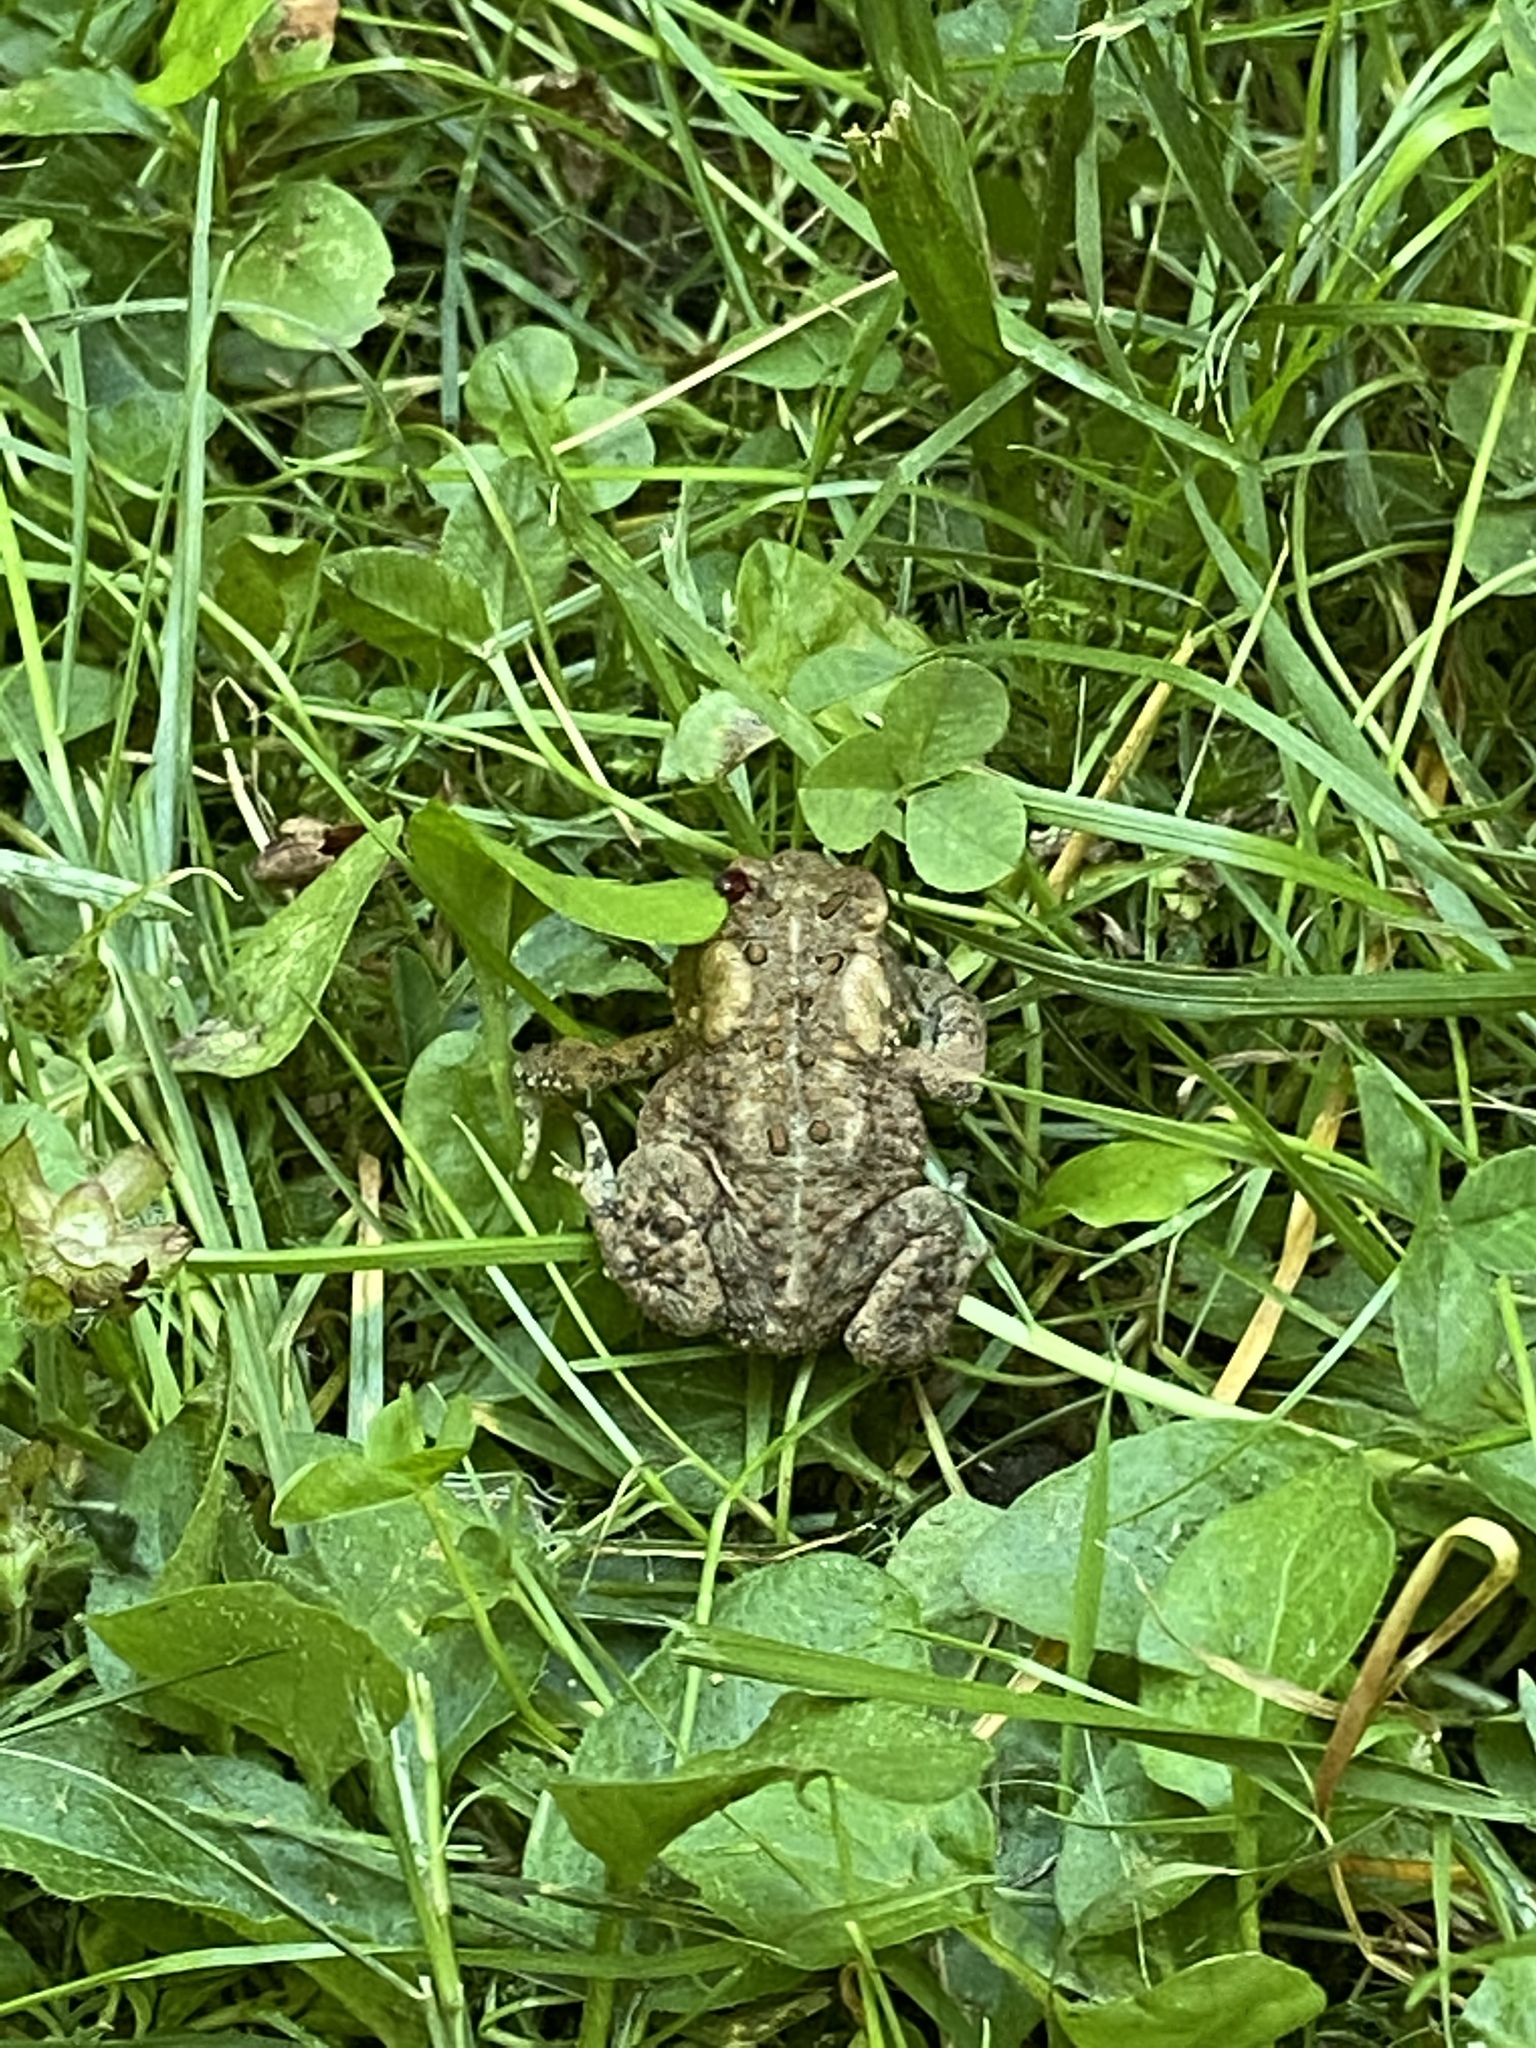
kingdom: Animalia
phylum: Chordata
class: Amphibia
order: Anura
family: Bufonidae
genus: Anaxyrus
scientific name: Anaxyrus americanus
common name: American toad
